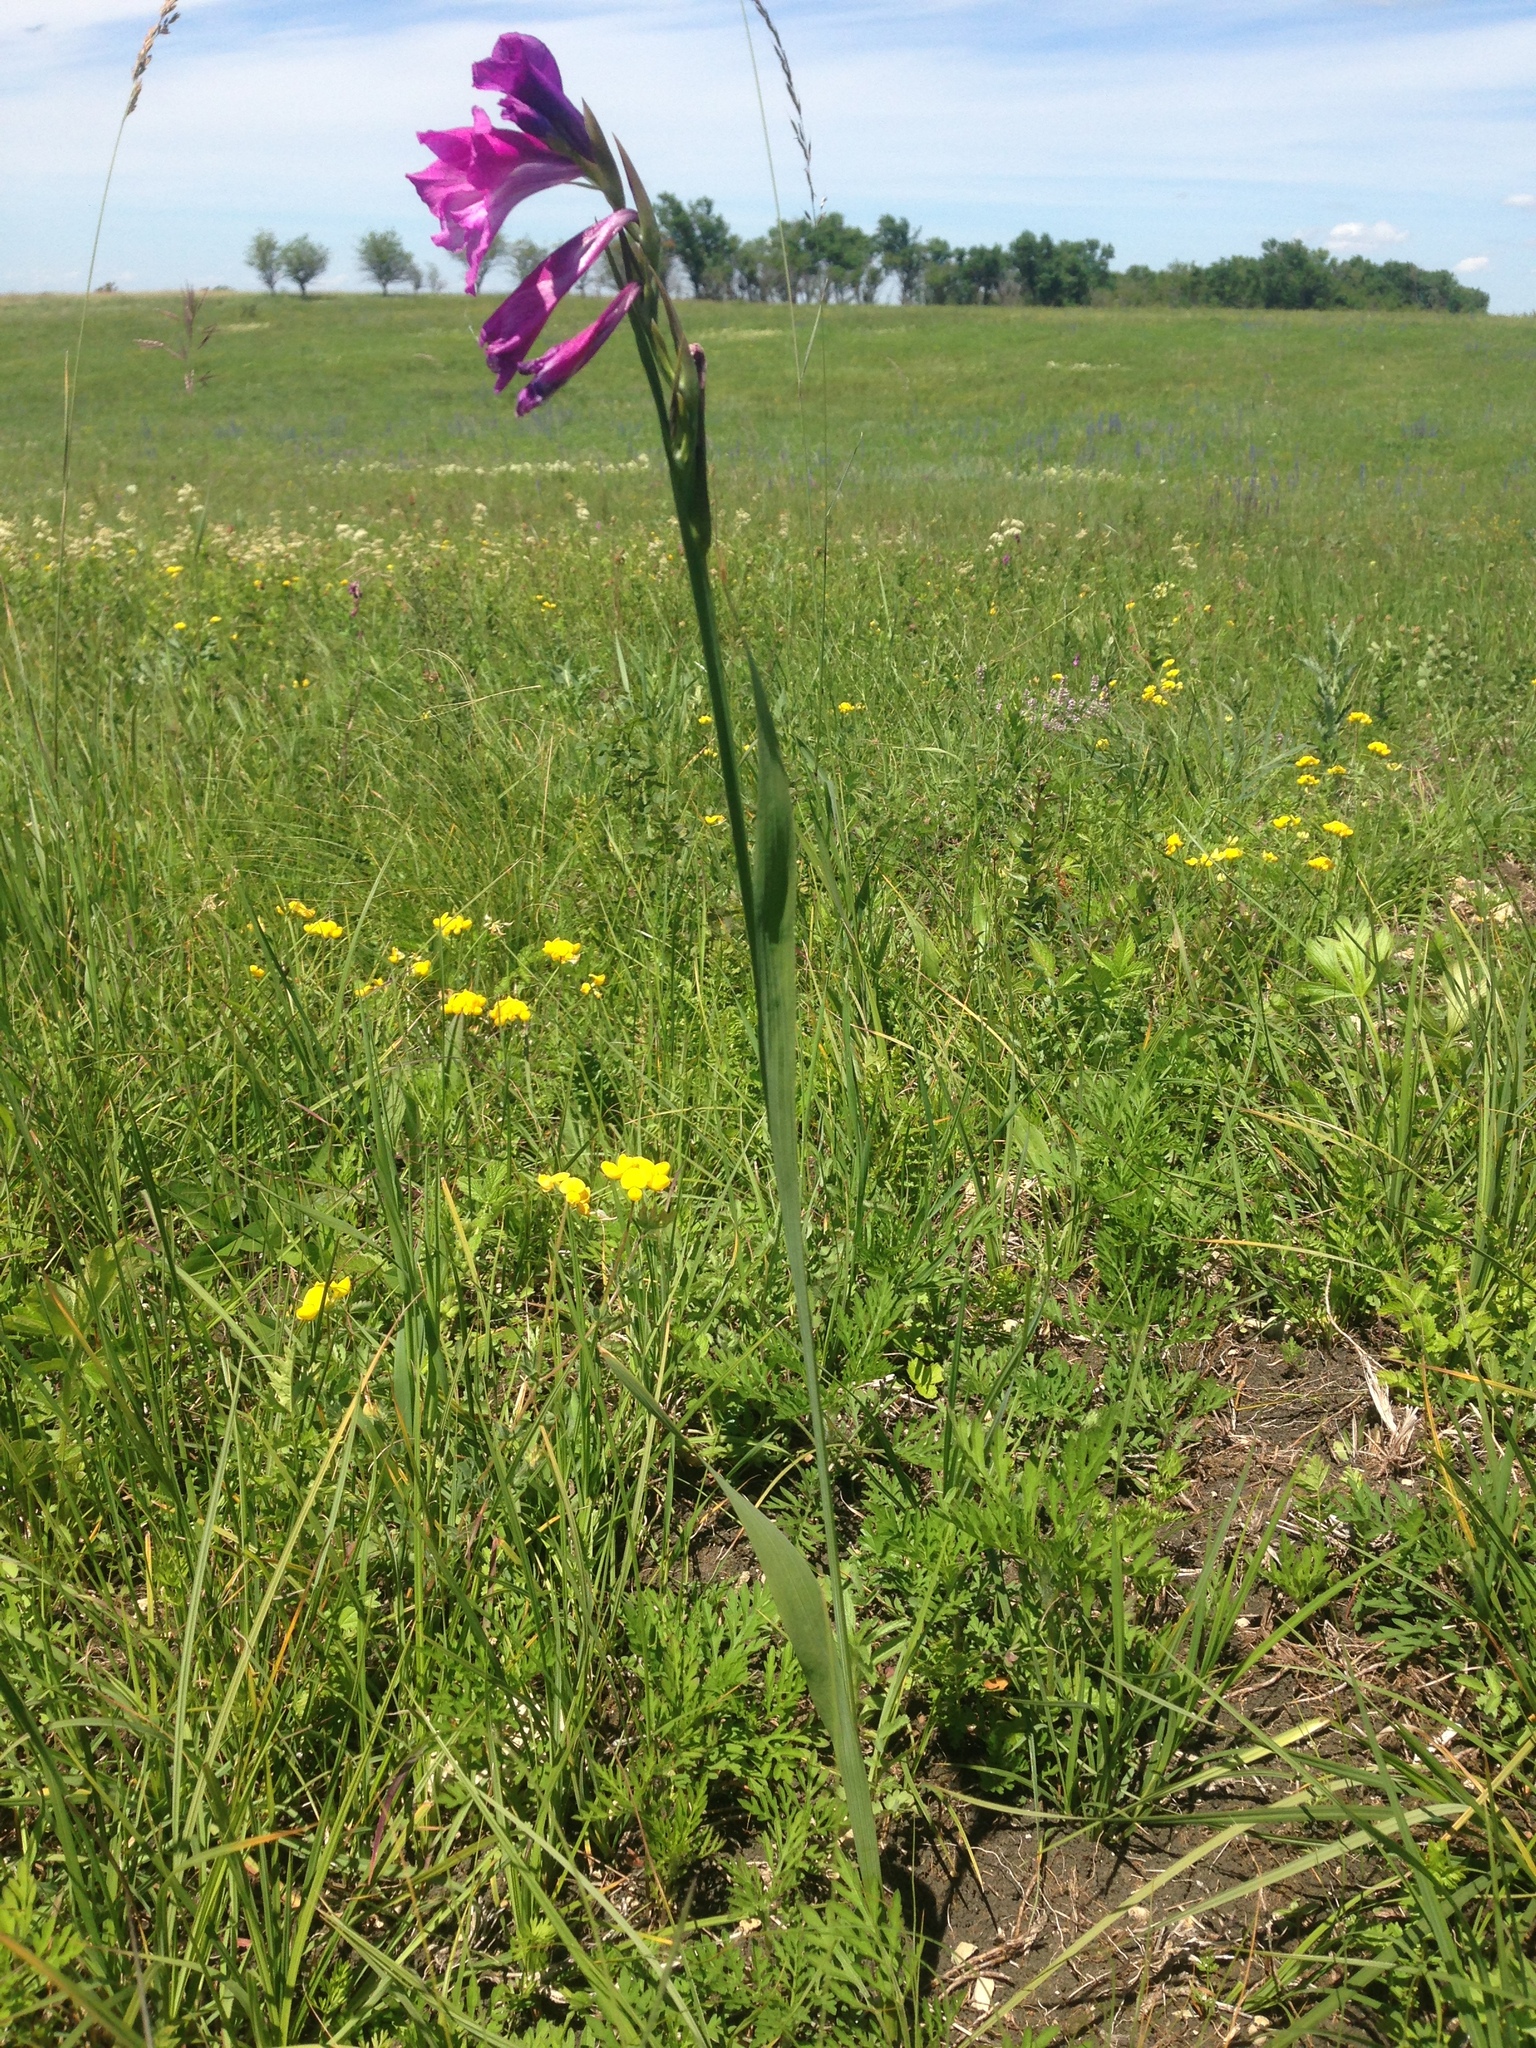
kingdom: Plantae
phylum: Tracheophyta
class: Liliopsida
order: Asparagales
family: Iridaceae
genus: Gladiolus
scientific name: Gladiolus tenuis
